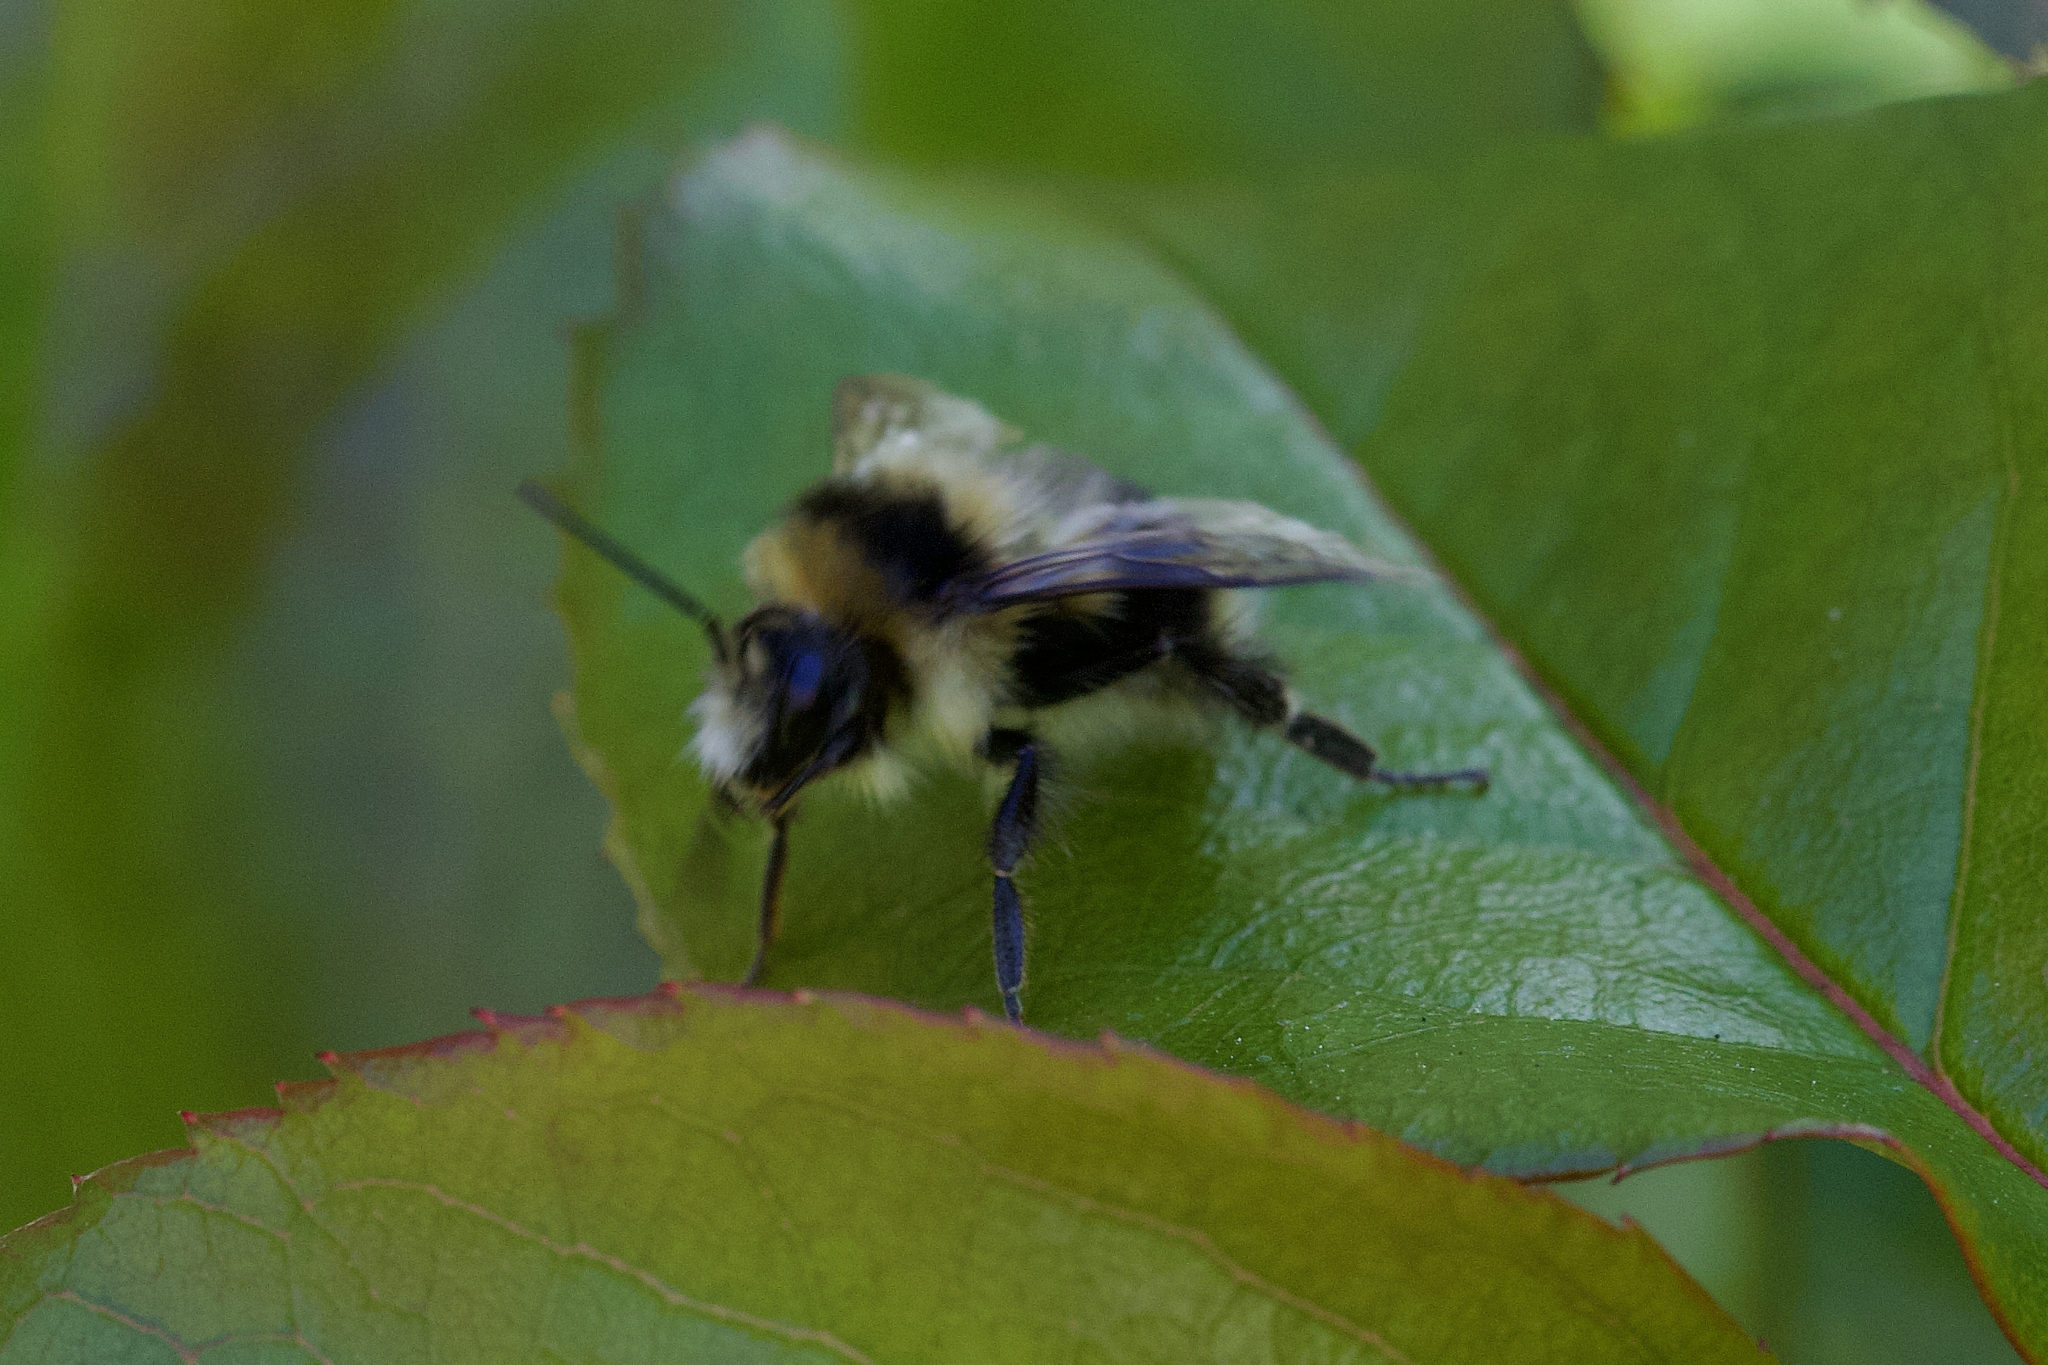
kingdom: Animalia
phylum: Arthropoda
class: Insecta
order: Hymenoptera
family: Apidae
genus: Bombus
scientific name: Bombus melanopygus
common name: Black tail bumble bee
